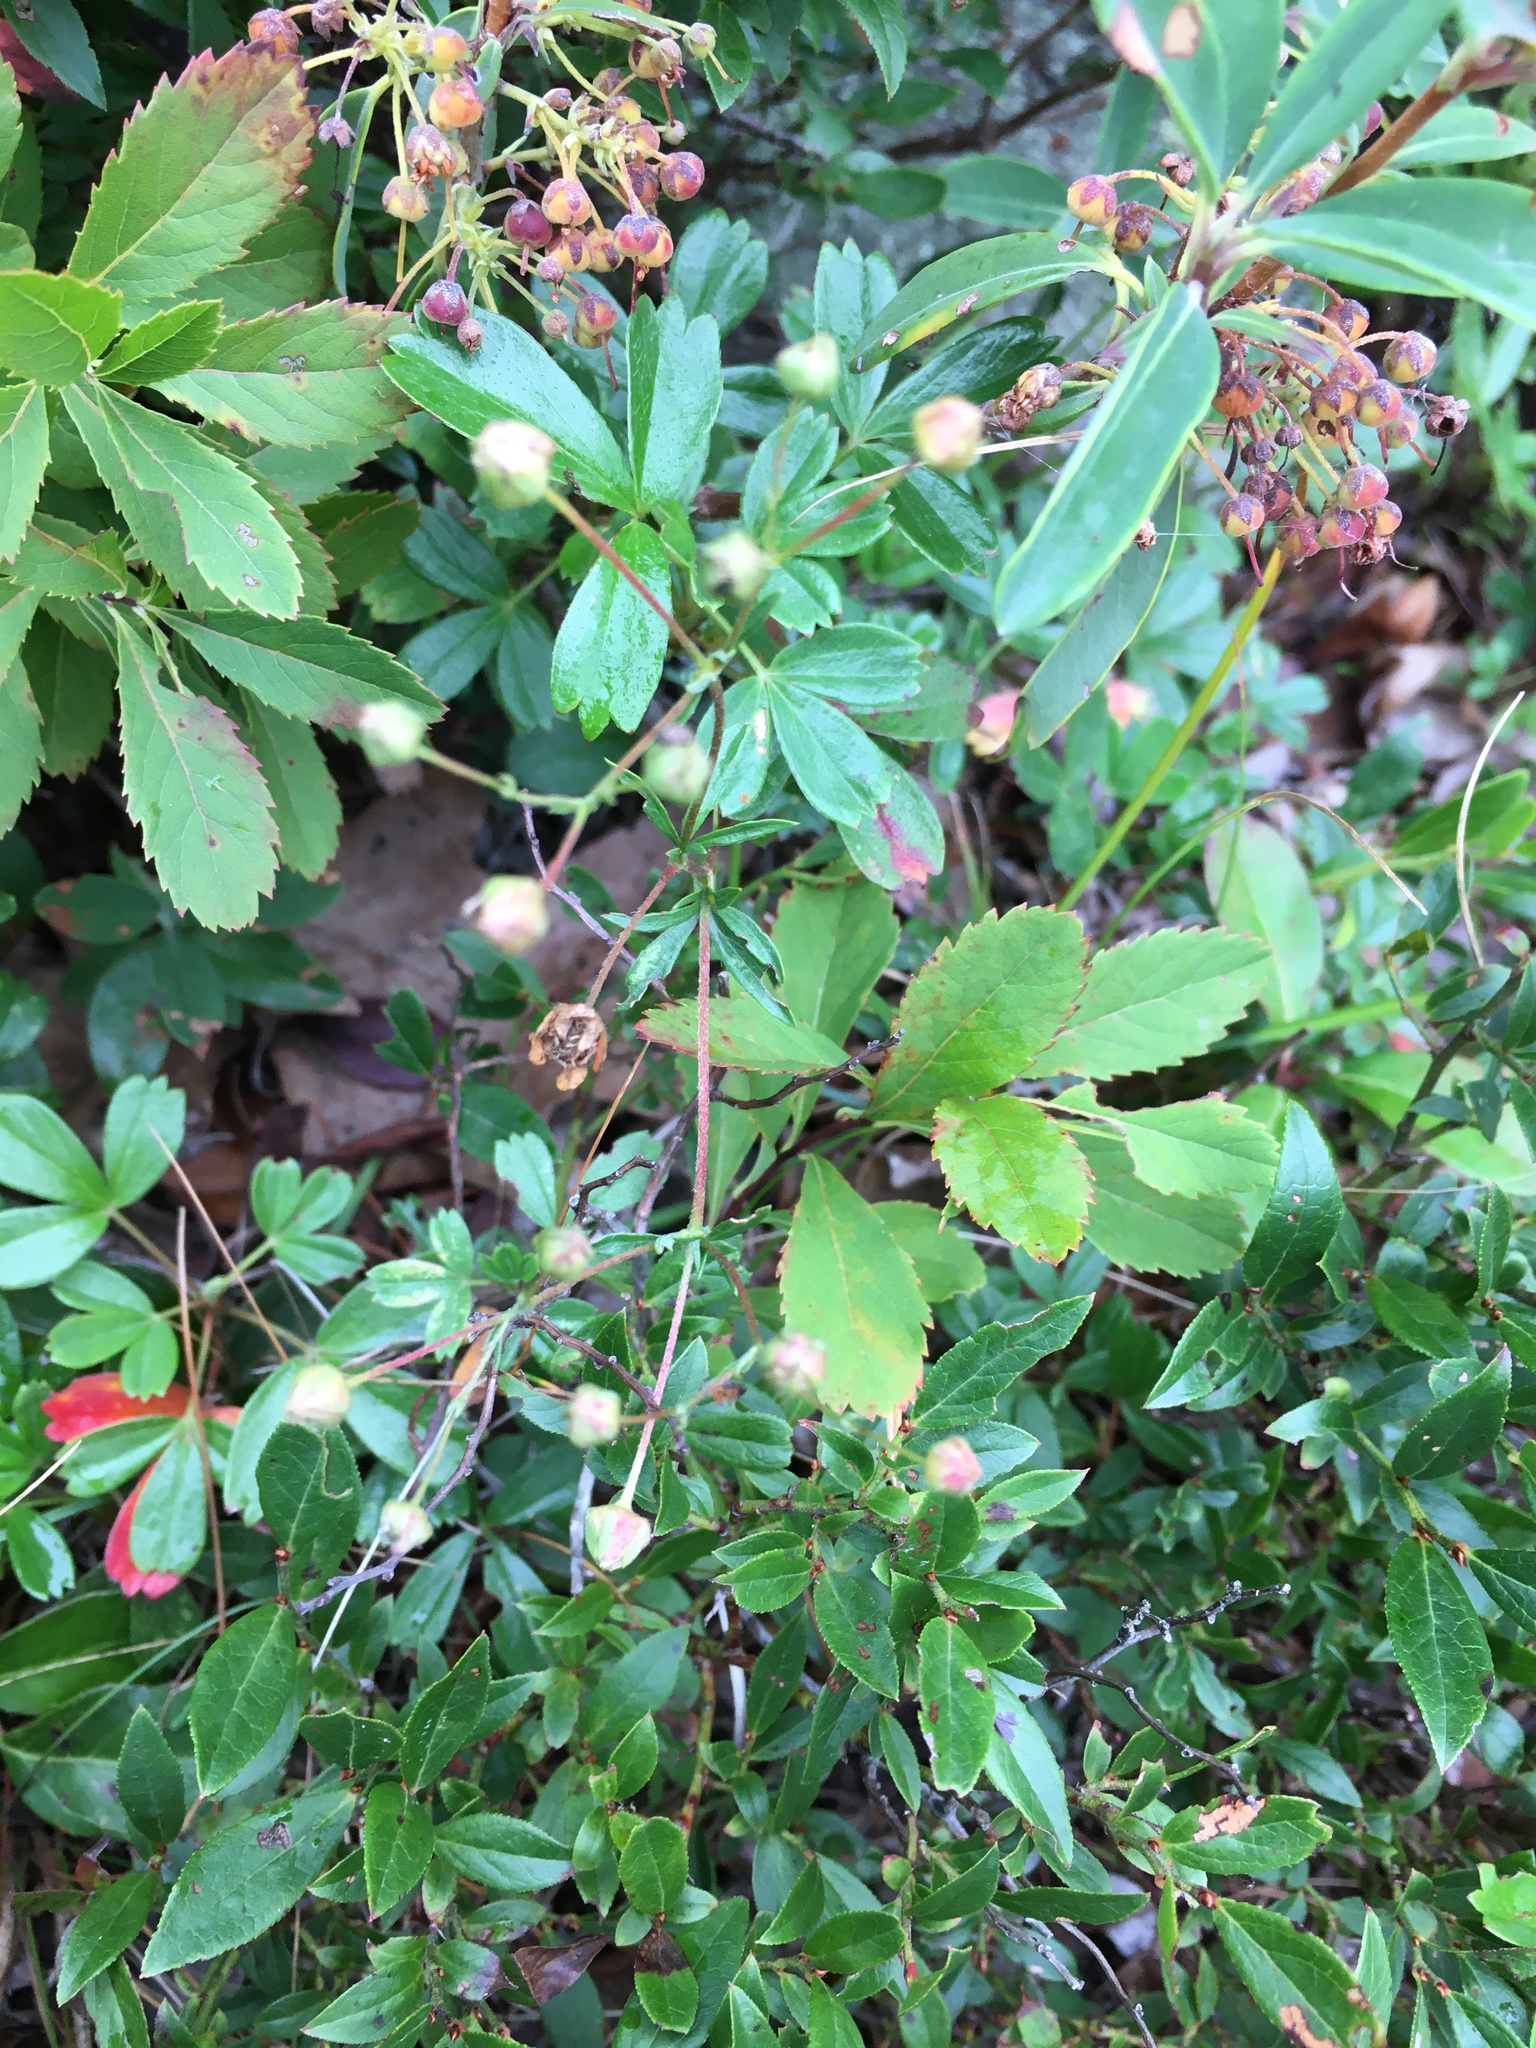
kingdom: Plantae
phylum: Tracheophyta
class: Magnoliopsida
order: Ericales
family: Ericaceae
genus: Kalmia
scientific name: Kalmia angustifolia
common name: Sheep-laurel
